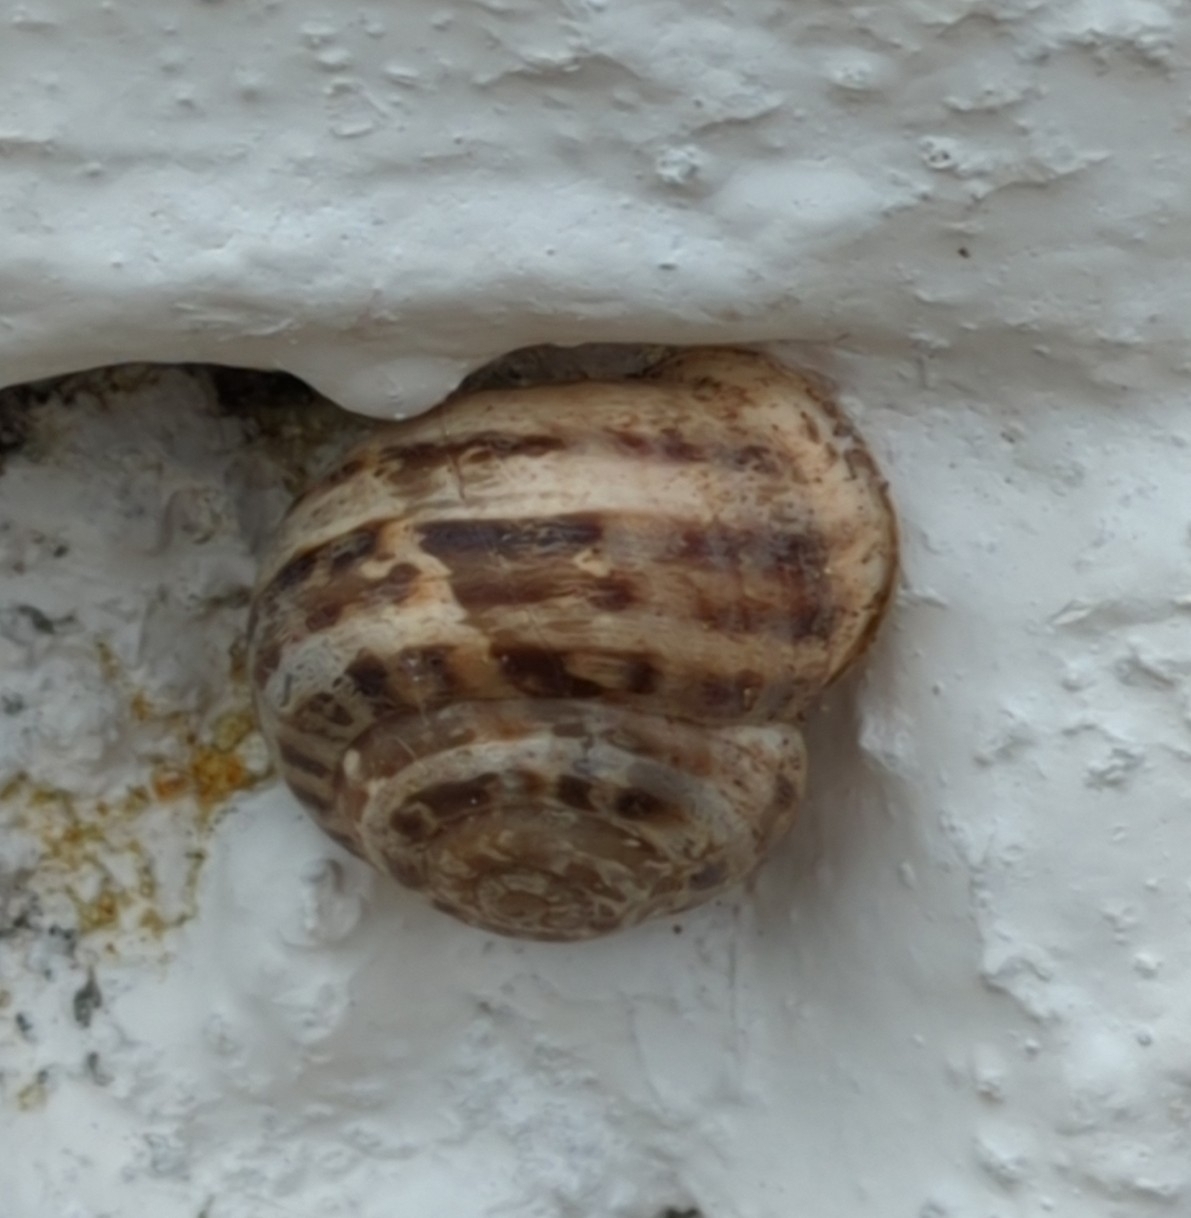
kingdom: Animalia
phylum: Mollusca
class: Gastropoda
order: Stylommatophora
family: Helicidae
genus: Eobania
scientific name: Eobania vermiculata
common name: Chocolateband snail
